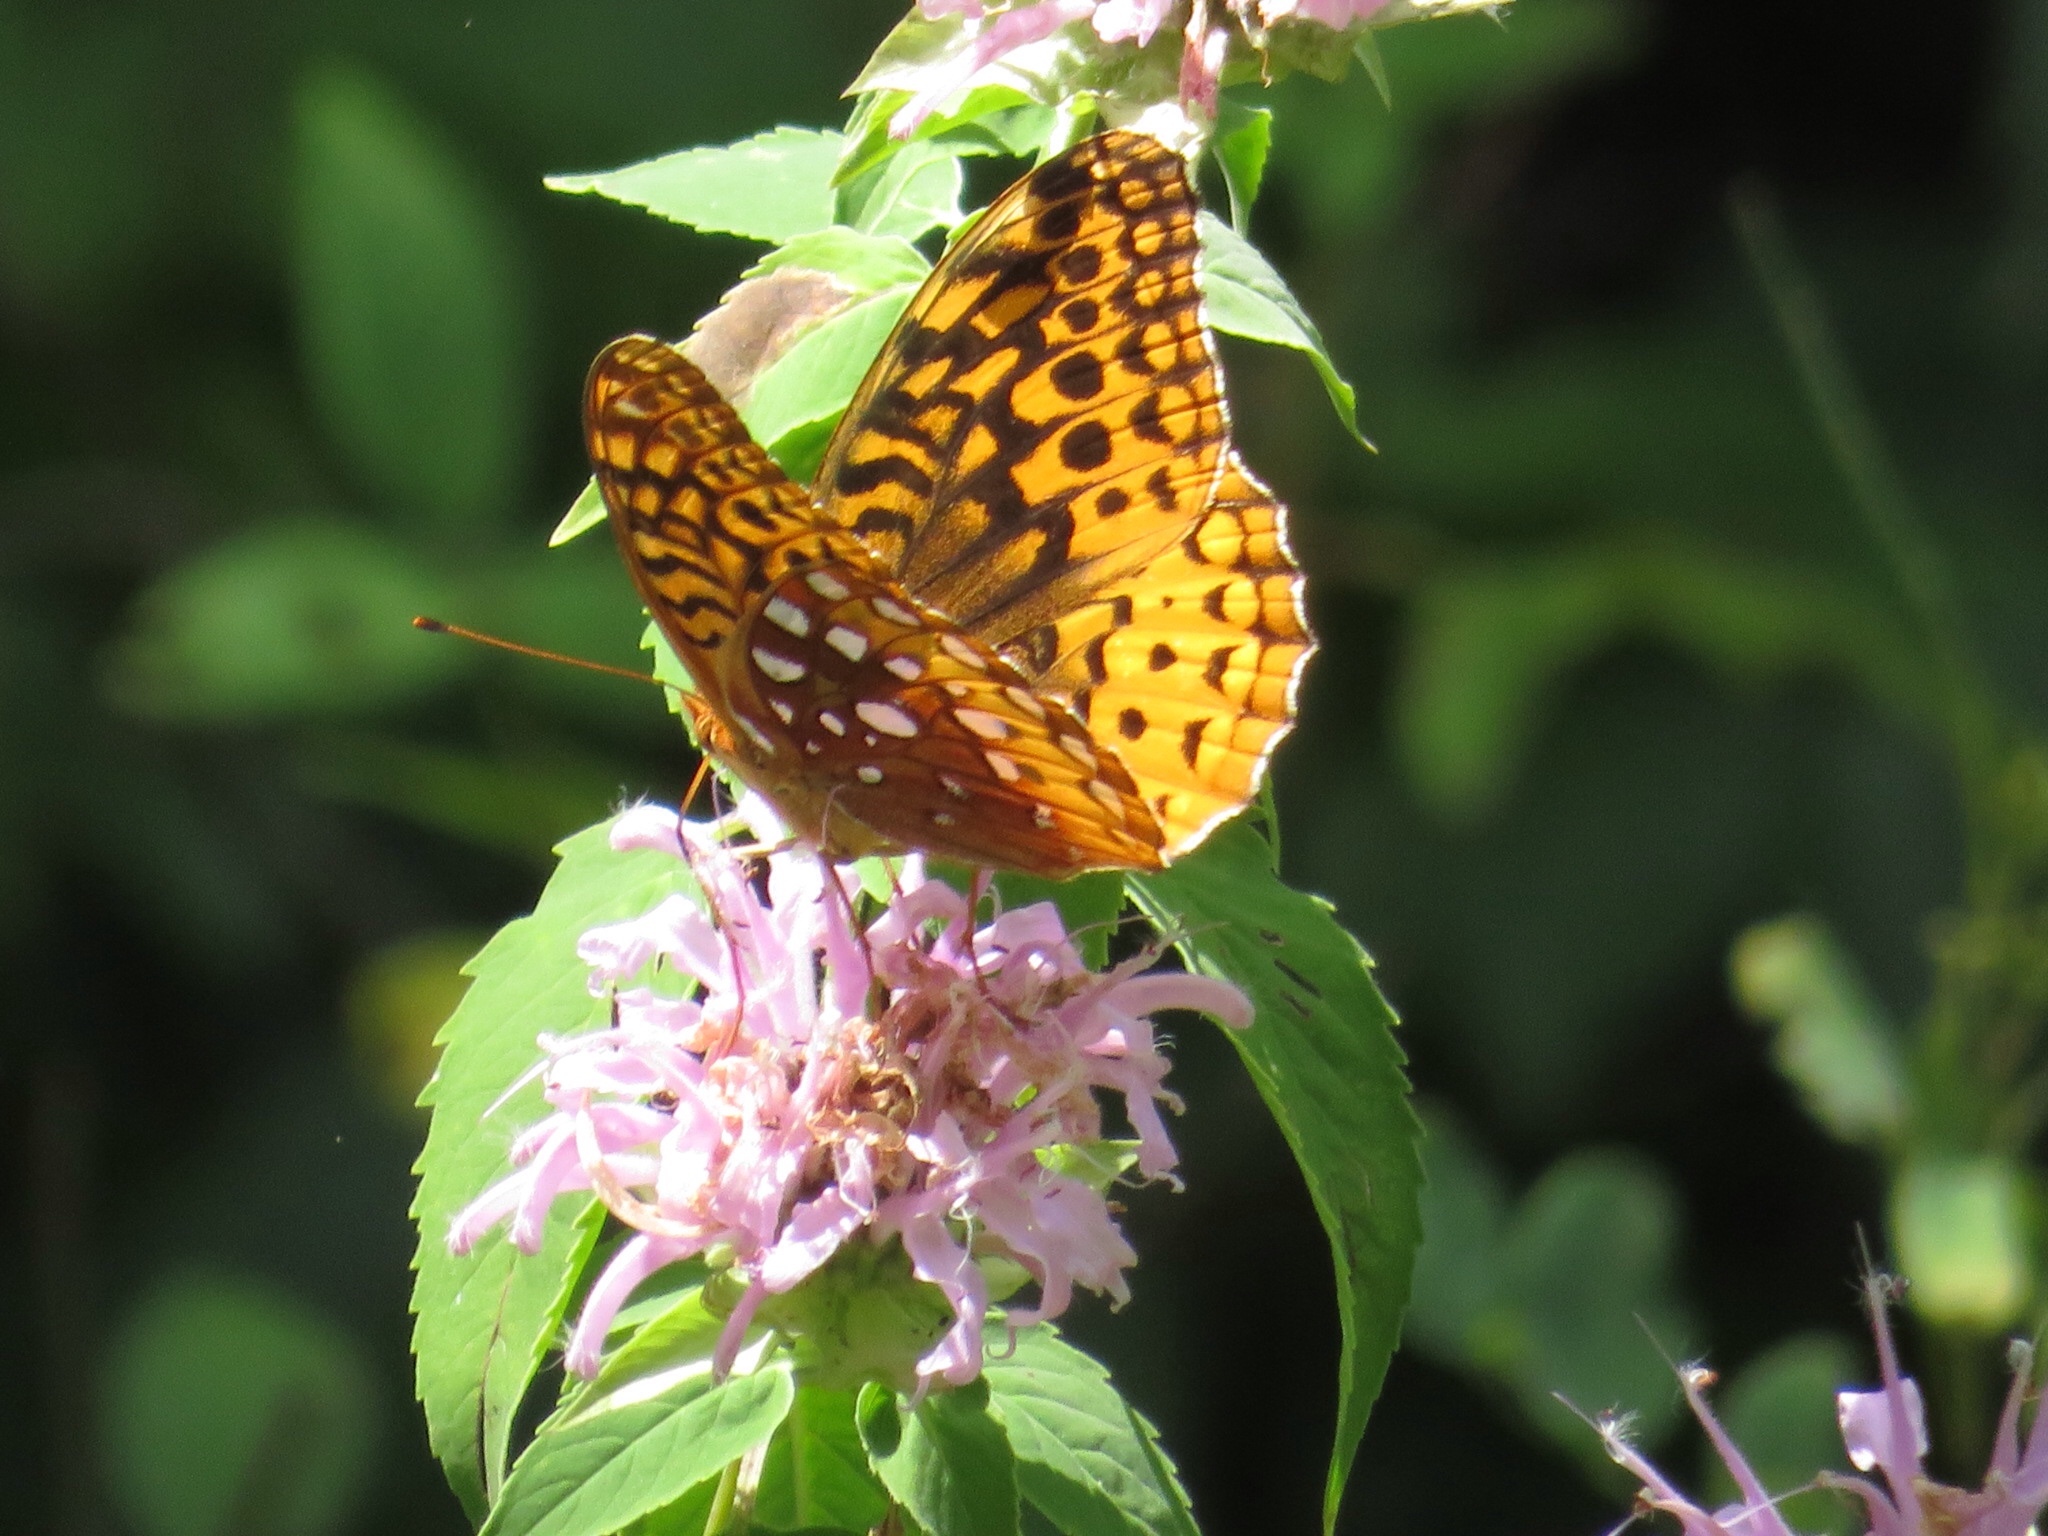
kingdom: Animalia
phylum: Arthropoda
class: Insecta
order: Lepidoptera
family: Nymphalidae
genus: Speyeria
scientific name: Speyeria cybele
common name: Great spangled fritillary
